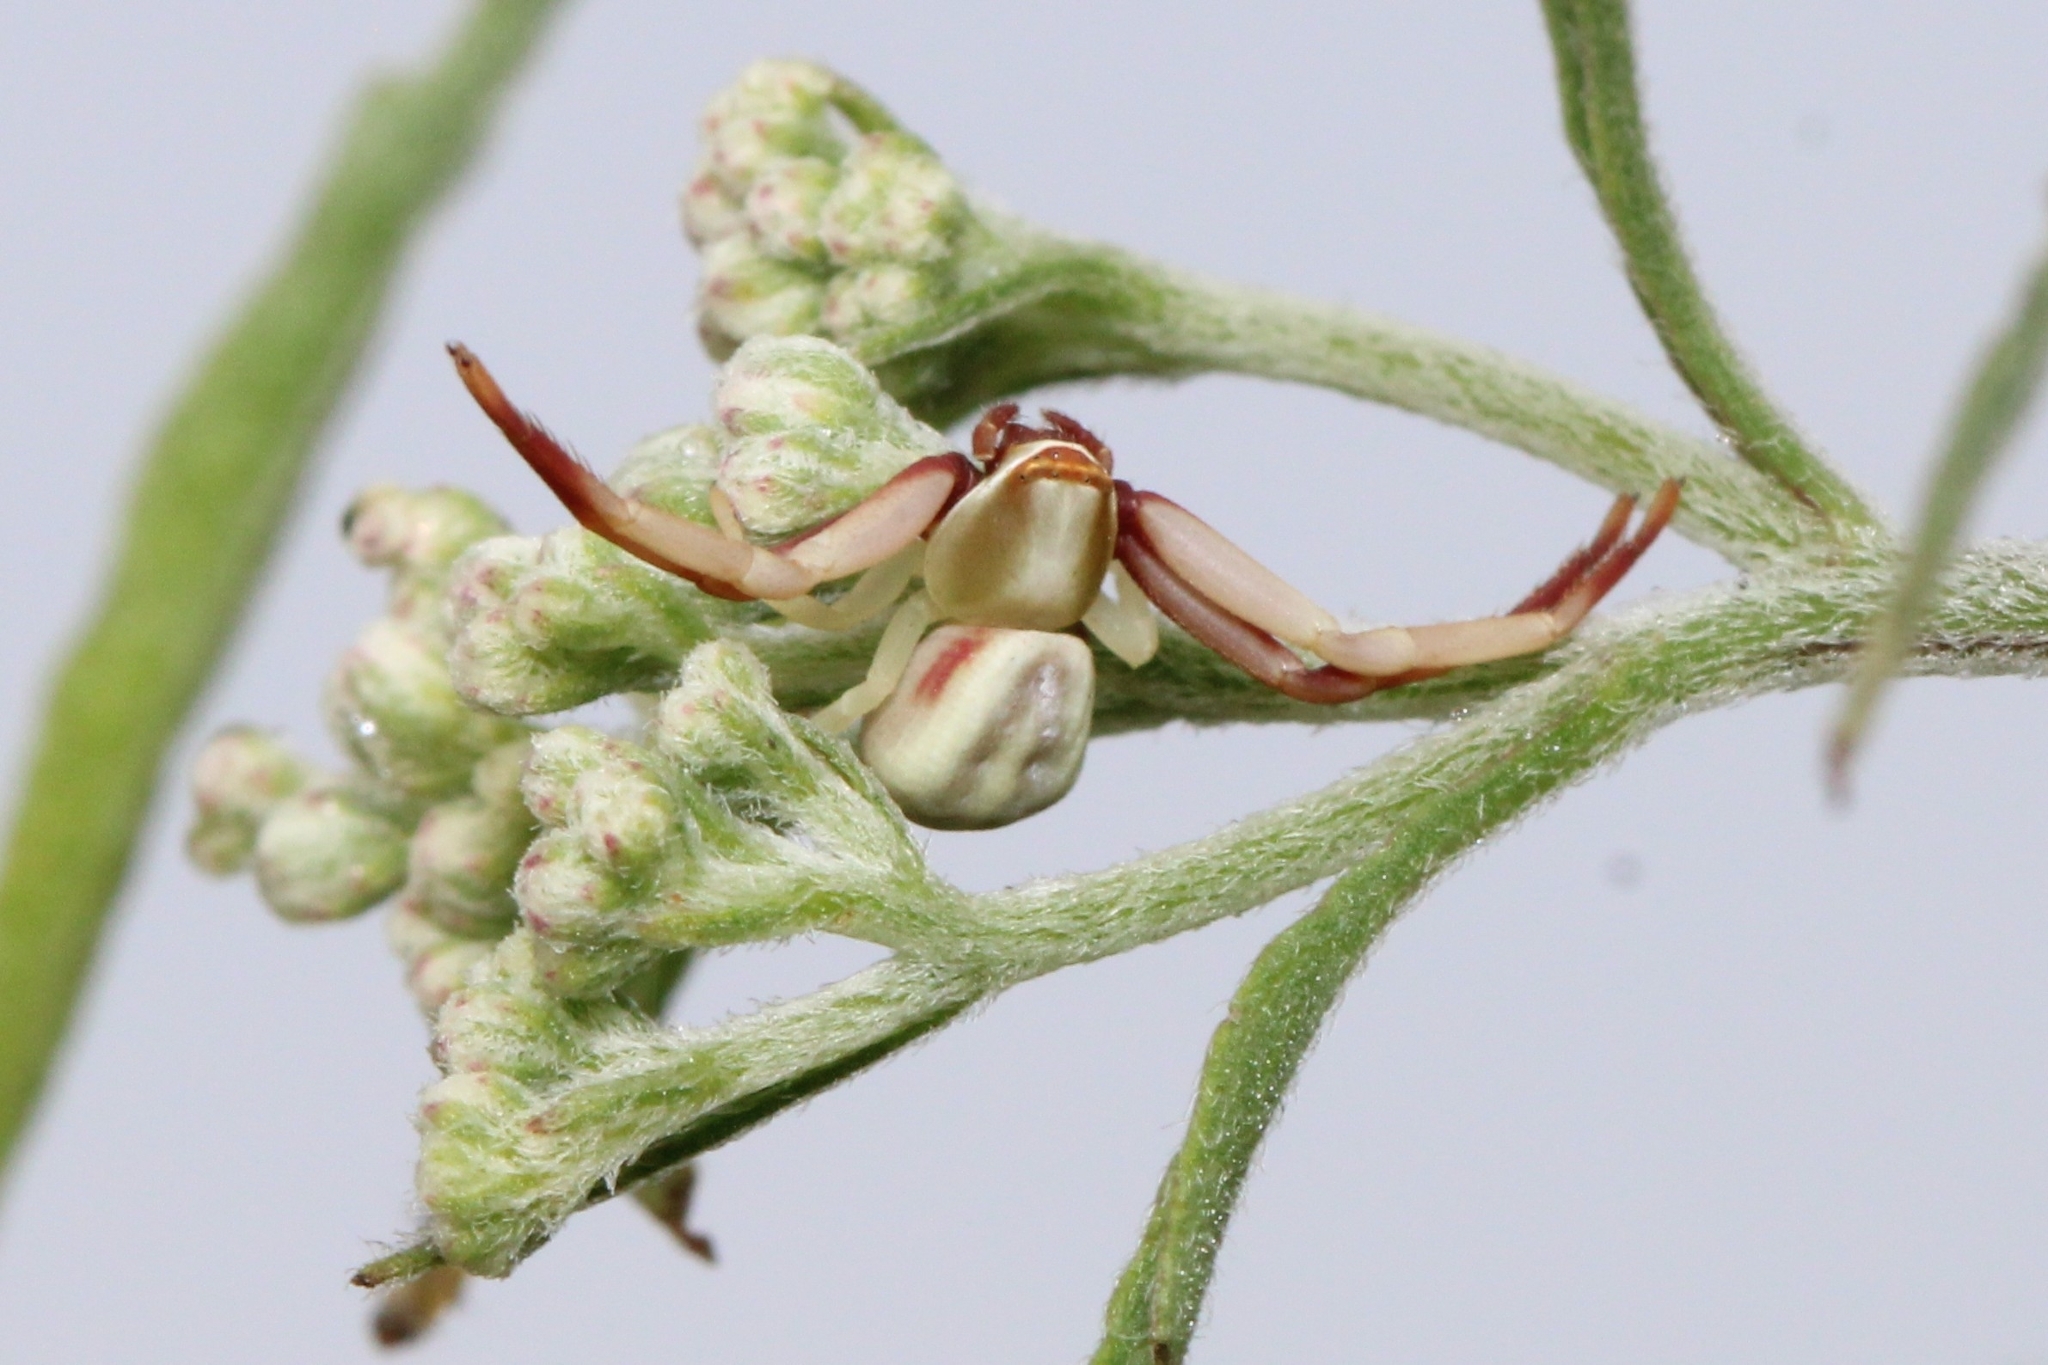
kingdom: Animalia
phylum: Arthropoda
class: Arachnida
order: Araneae
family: Thomisidae
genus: Misumenoides
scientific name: Misumenoides formosipes
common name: White-banded crab spider
